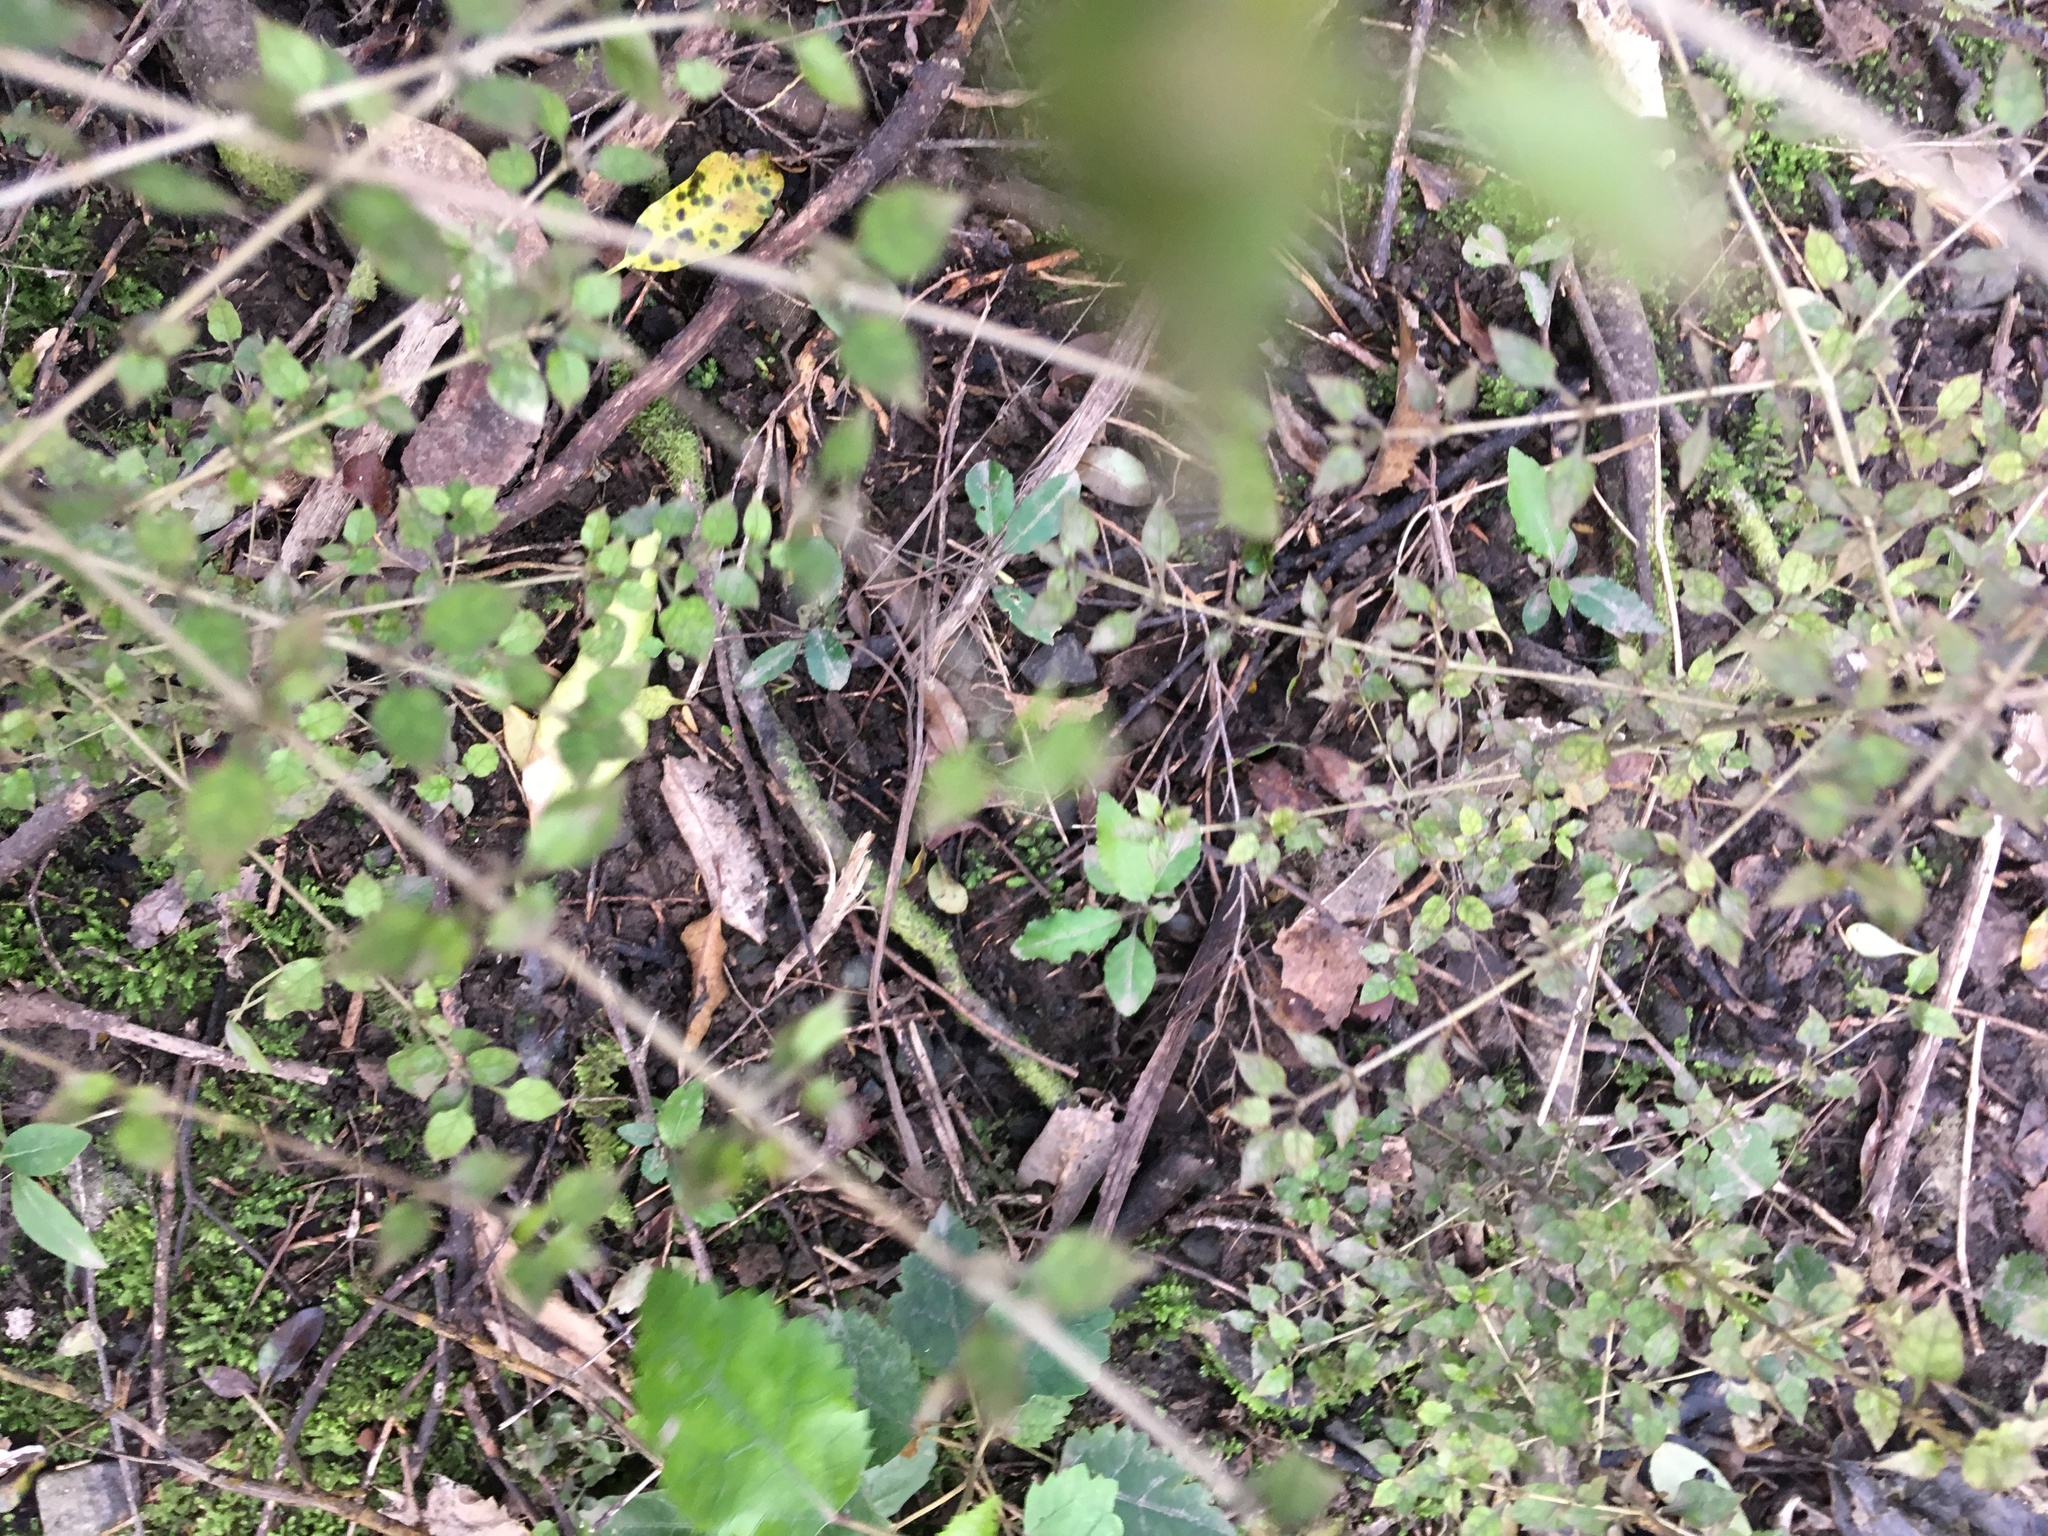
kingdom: Plantae
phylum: Tracheophyta
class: Magnoliopsida
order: Gentianales
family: Rubiaceae
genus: Coprosma
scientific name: Coprosma areolata
